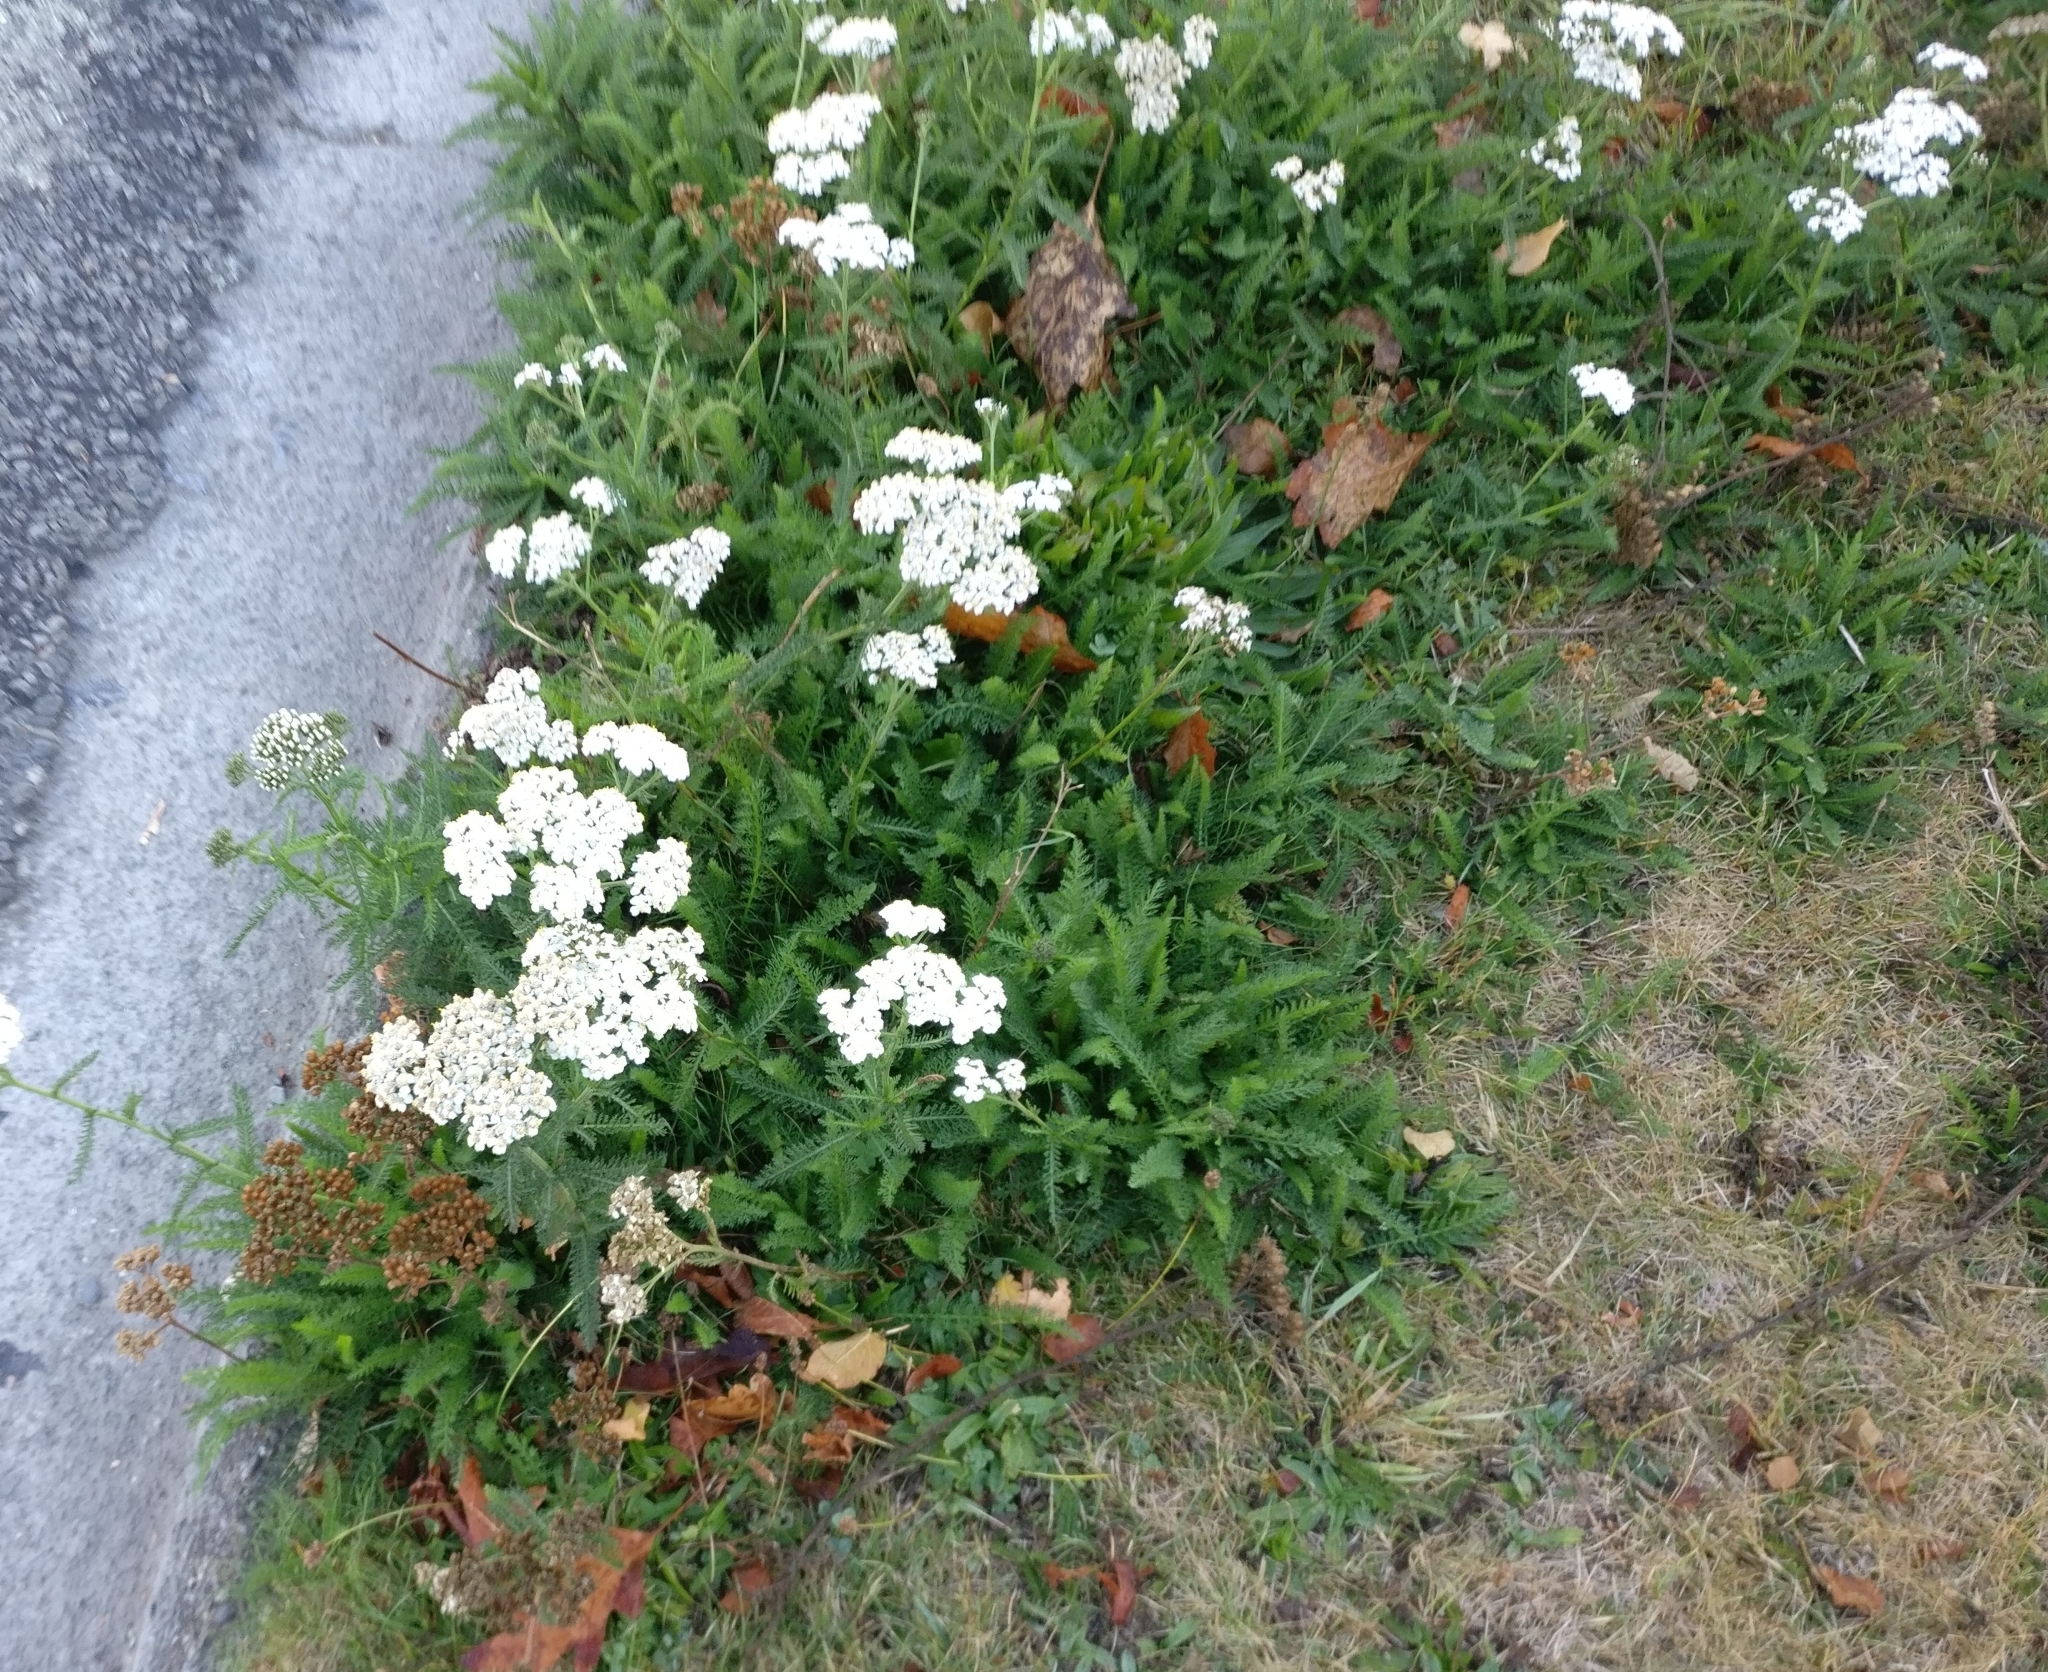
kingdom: Plantae
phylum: Tracheophyta
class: Magnoliopsida
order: Asterales
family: Asteraceae
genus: Achillea
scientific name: Achillea millefolium
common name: Yarrow
